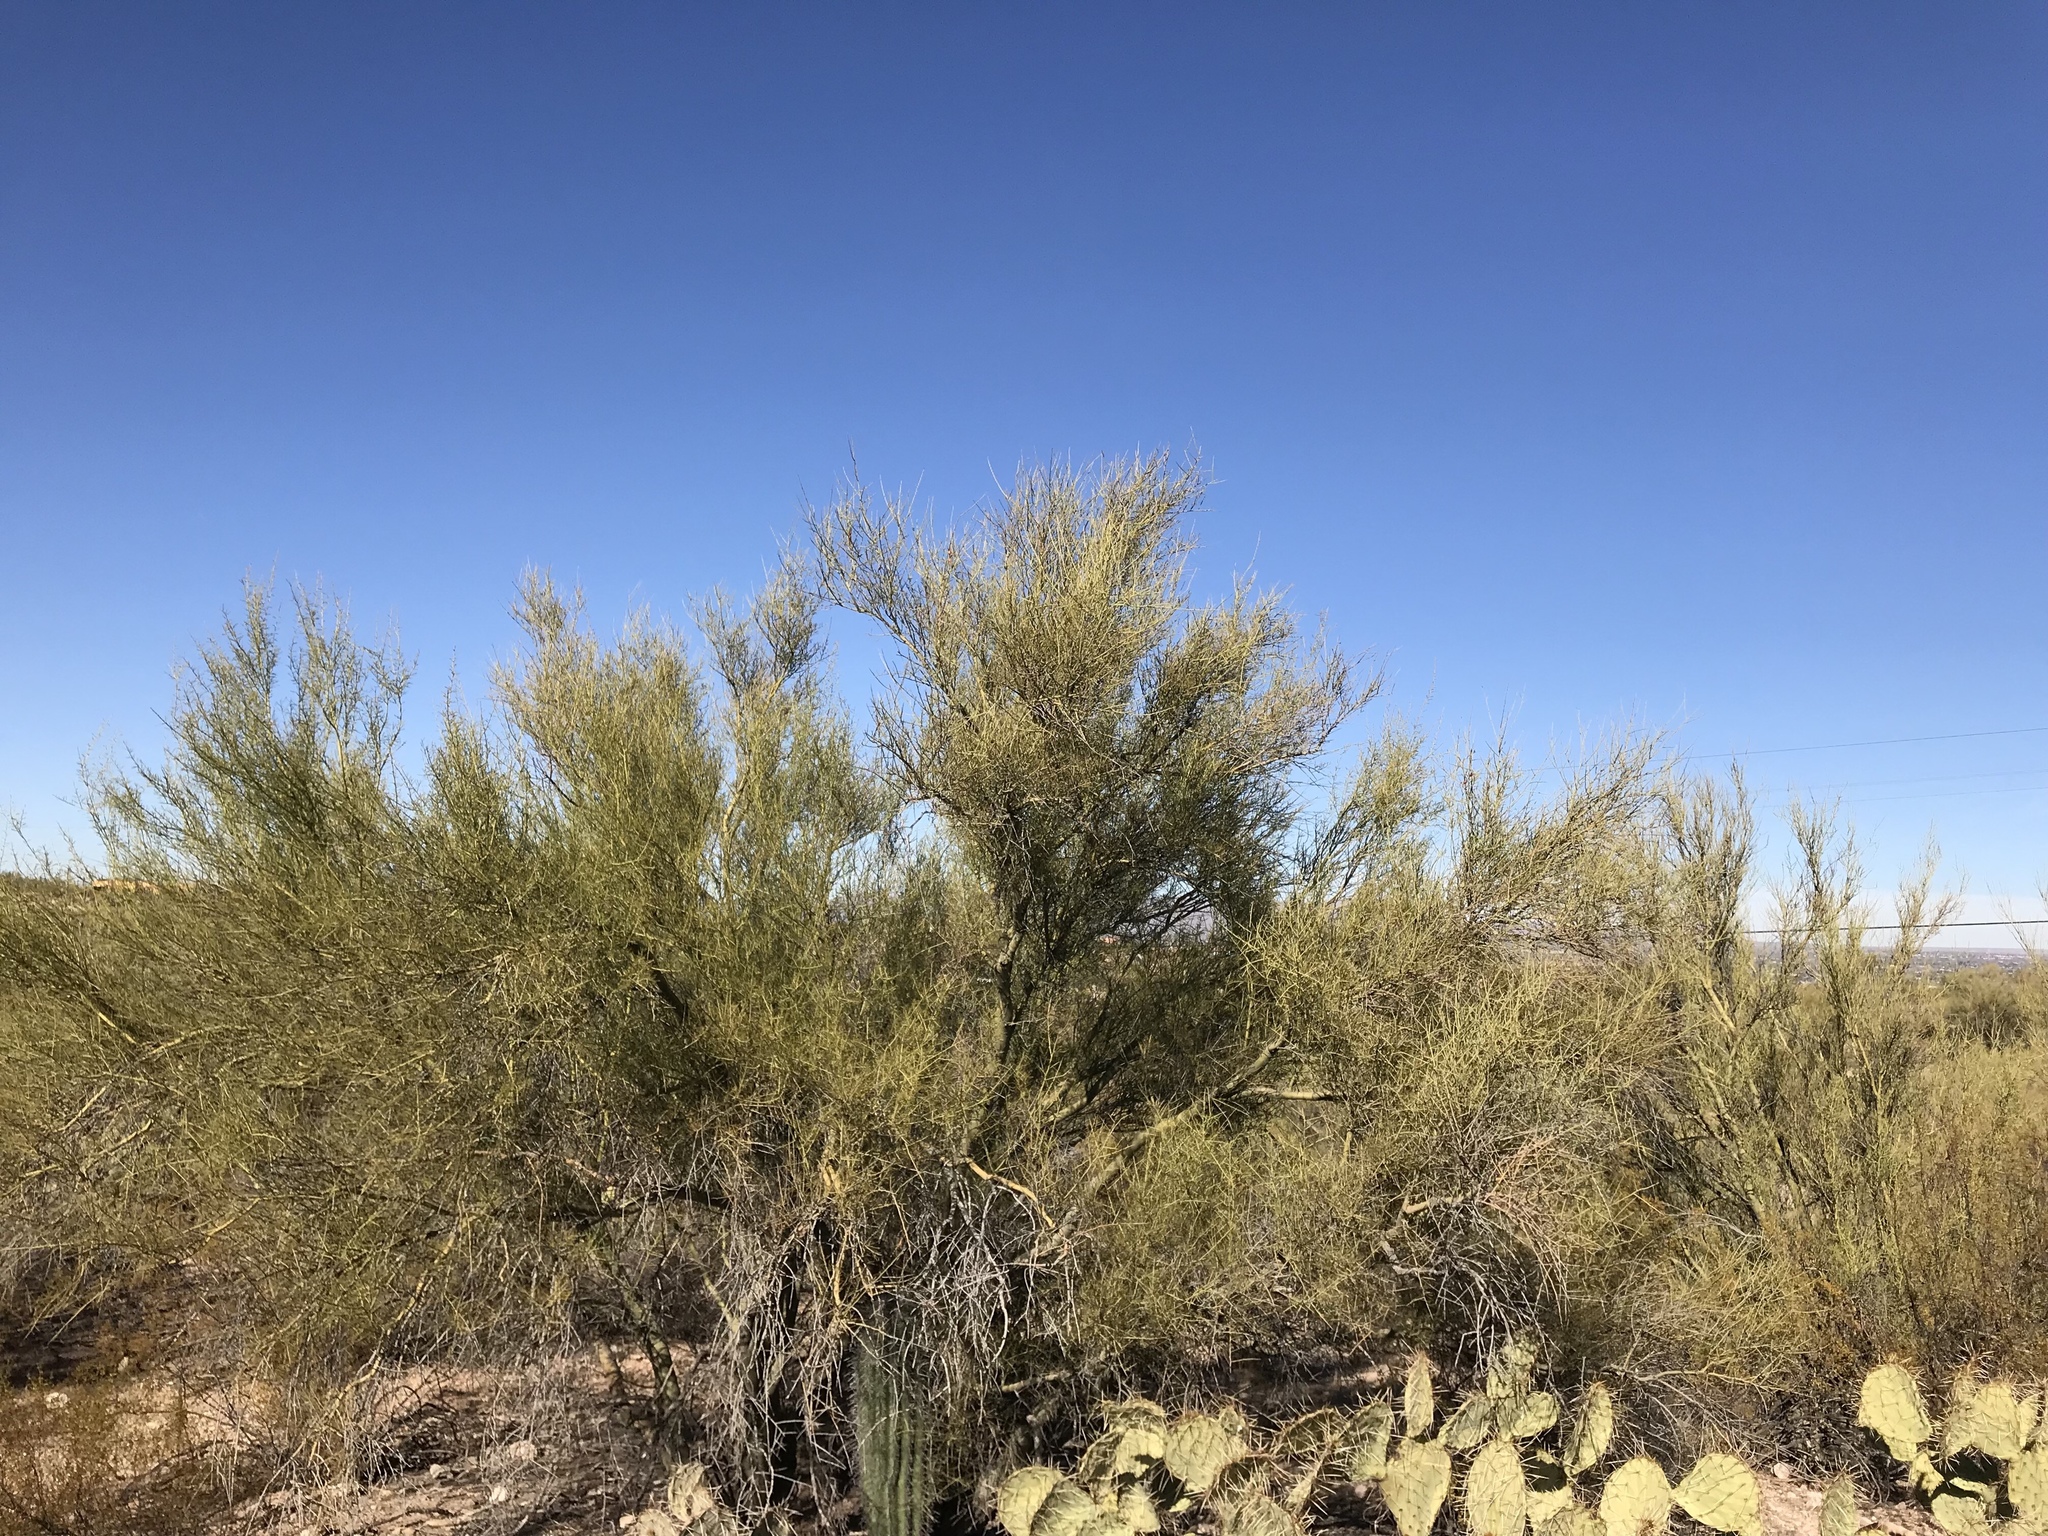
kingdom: Plantae
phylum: Tracheophyta
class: Magnoliopsida
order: Fabales
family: Fabaceae
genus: Parkinsonia
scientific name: Parkinsonia microphylla
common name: Yellow paloverde
